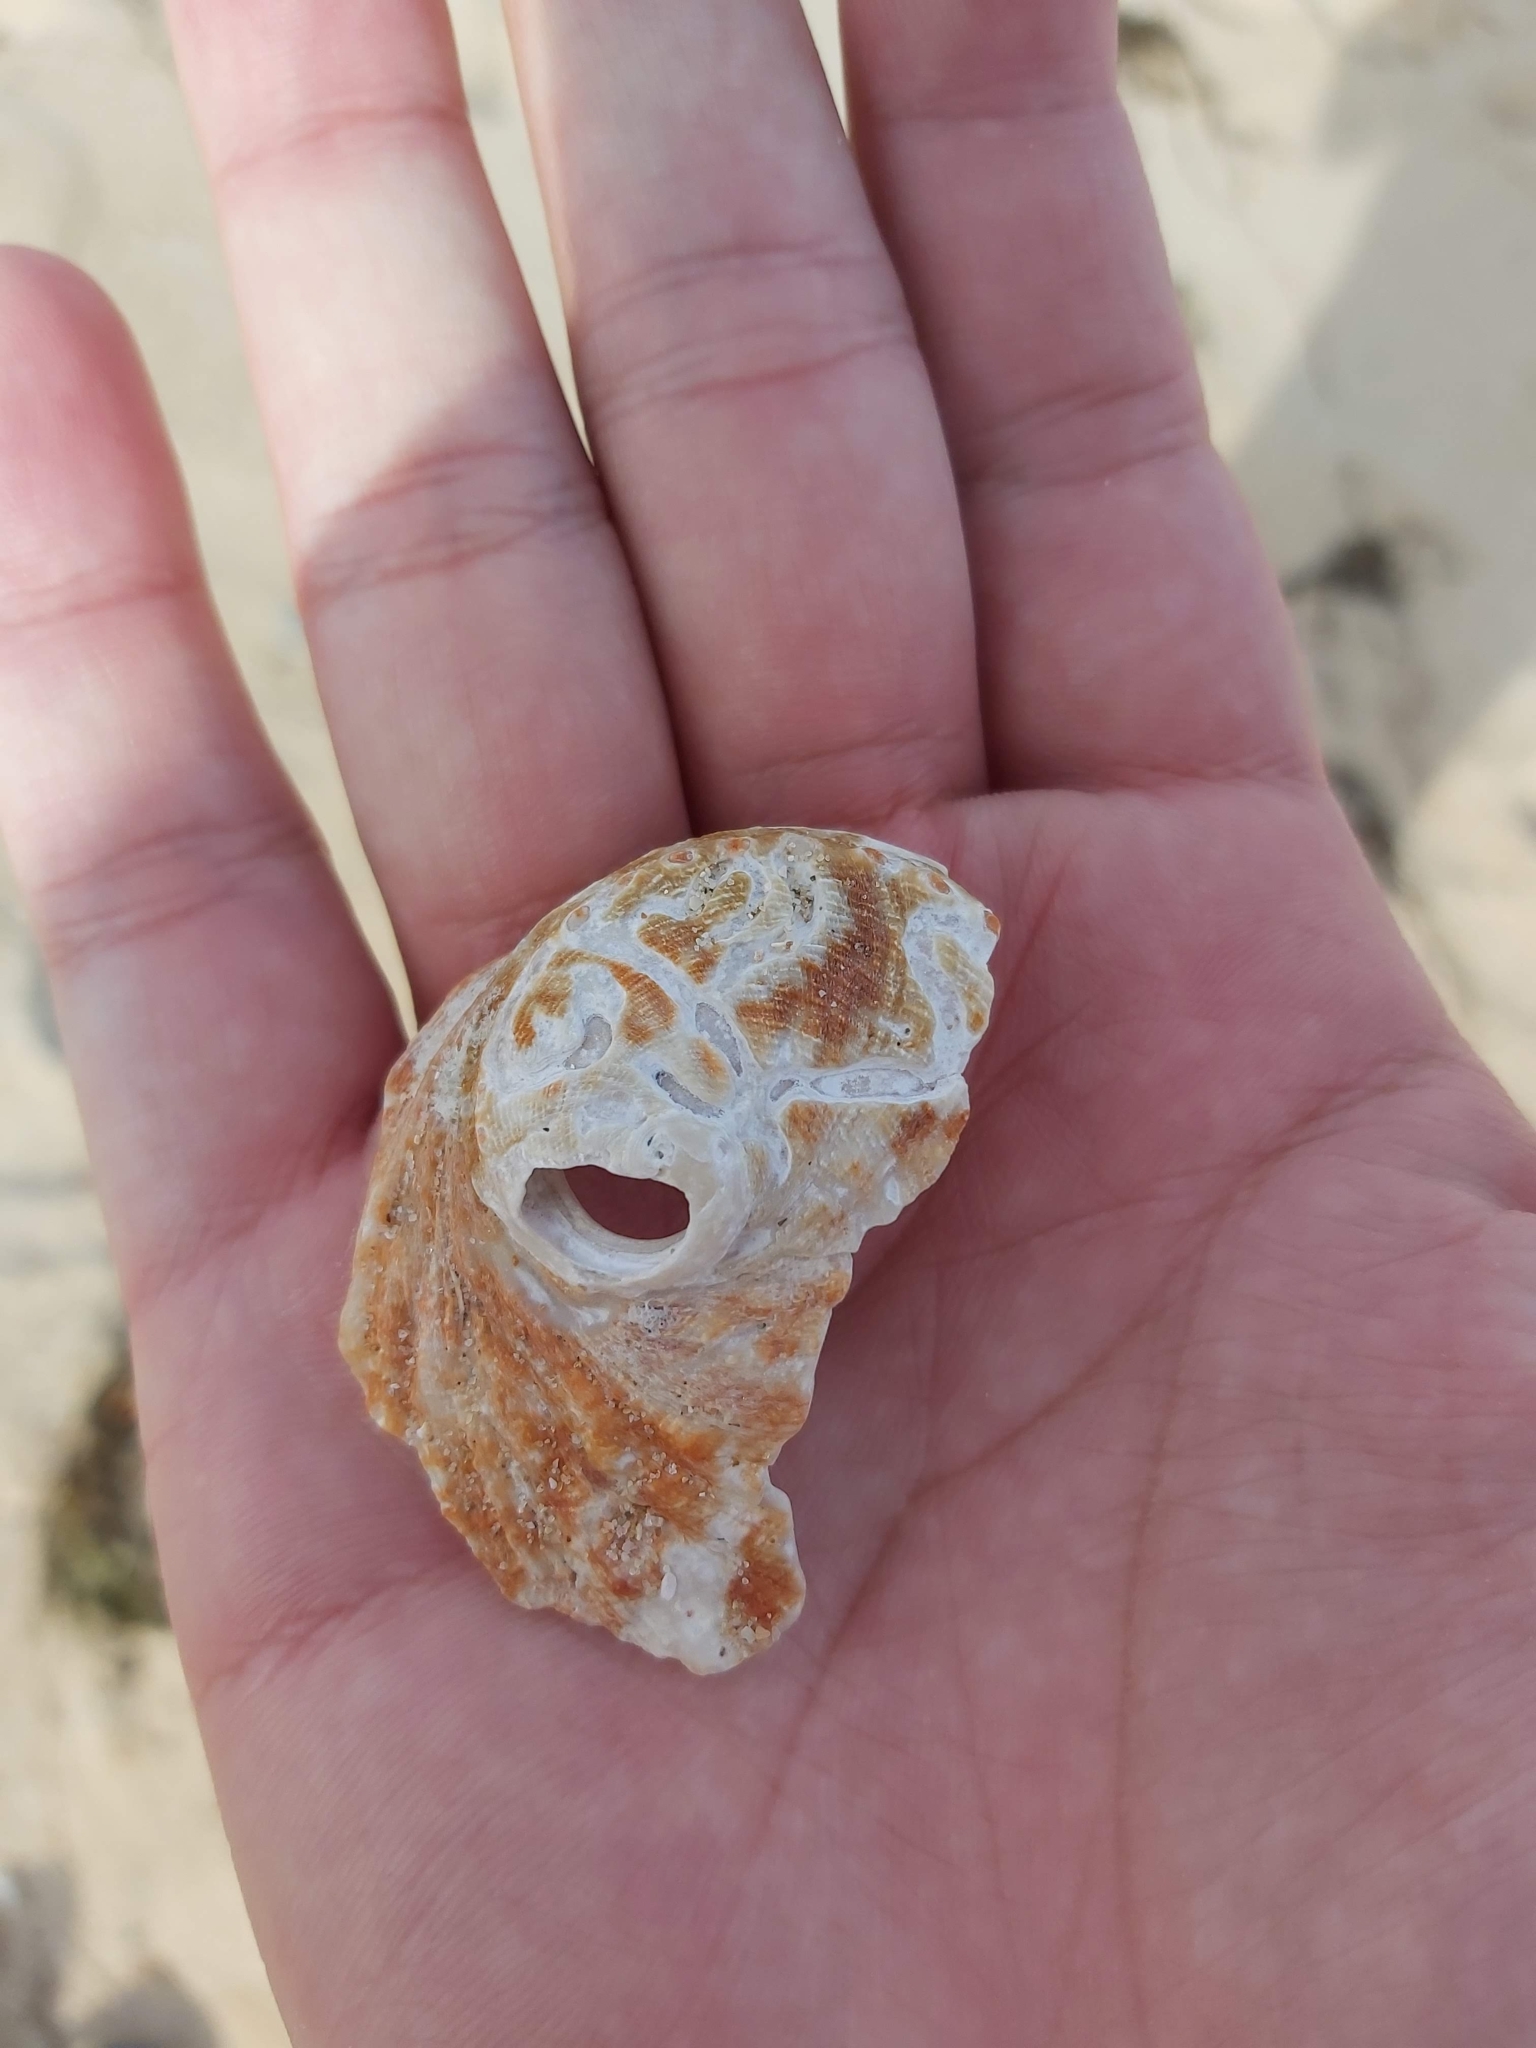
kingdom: Animalia
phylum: Mollusca
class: Gastropoda
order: Lepetellida
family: Haliotidae
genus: Haliotis
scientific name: Haliotis rubra
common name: Blacklip abalone
